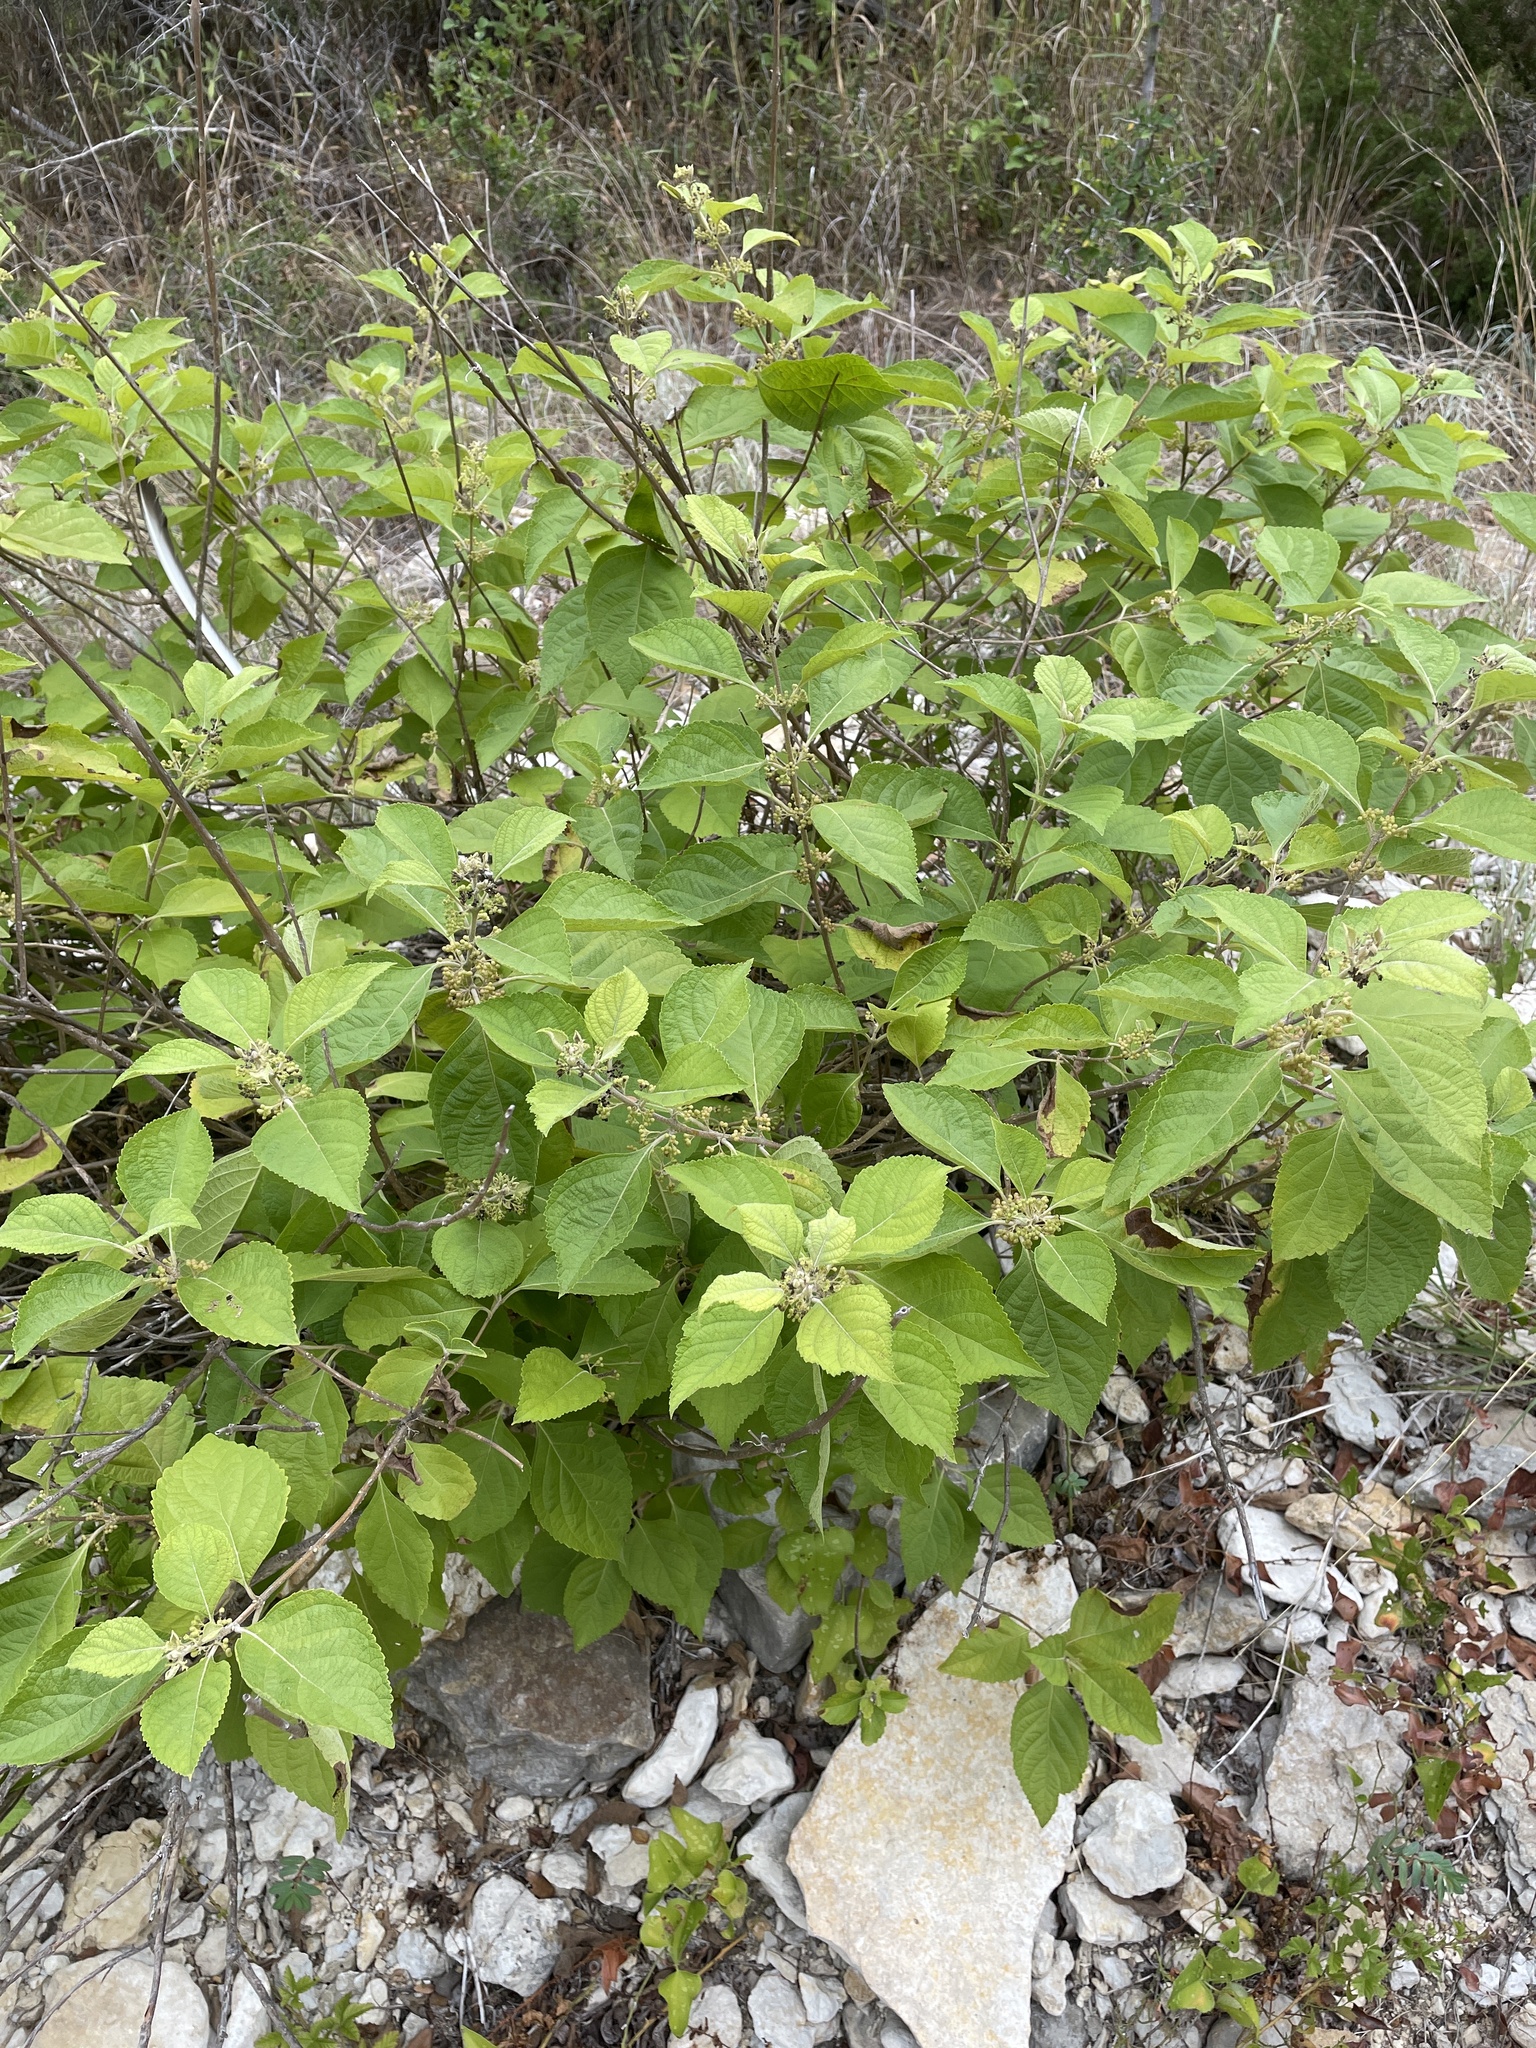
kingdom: Plantae
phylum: Tracheophyta
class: Magnoliopsida
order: Lamiales
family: Lamiaceae
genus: Callicarpa
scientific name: Callicarpa americana
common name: American beautyberry
